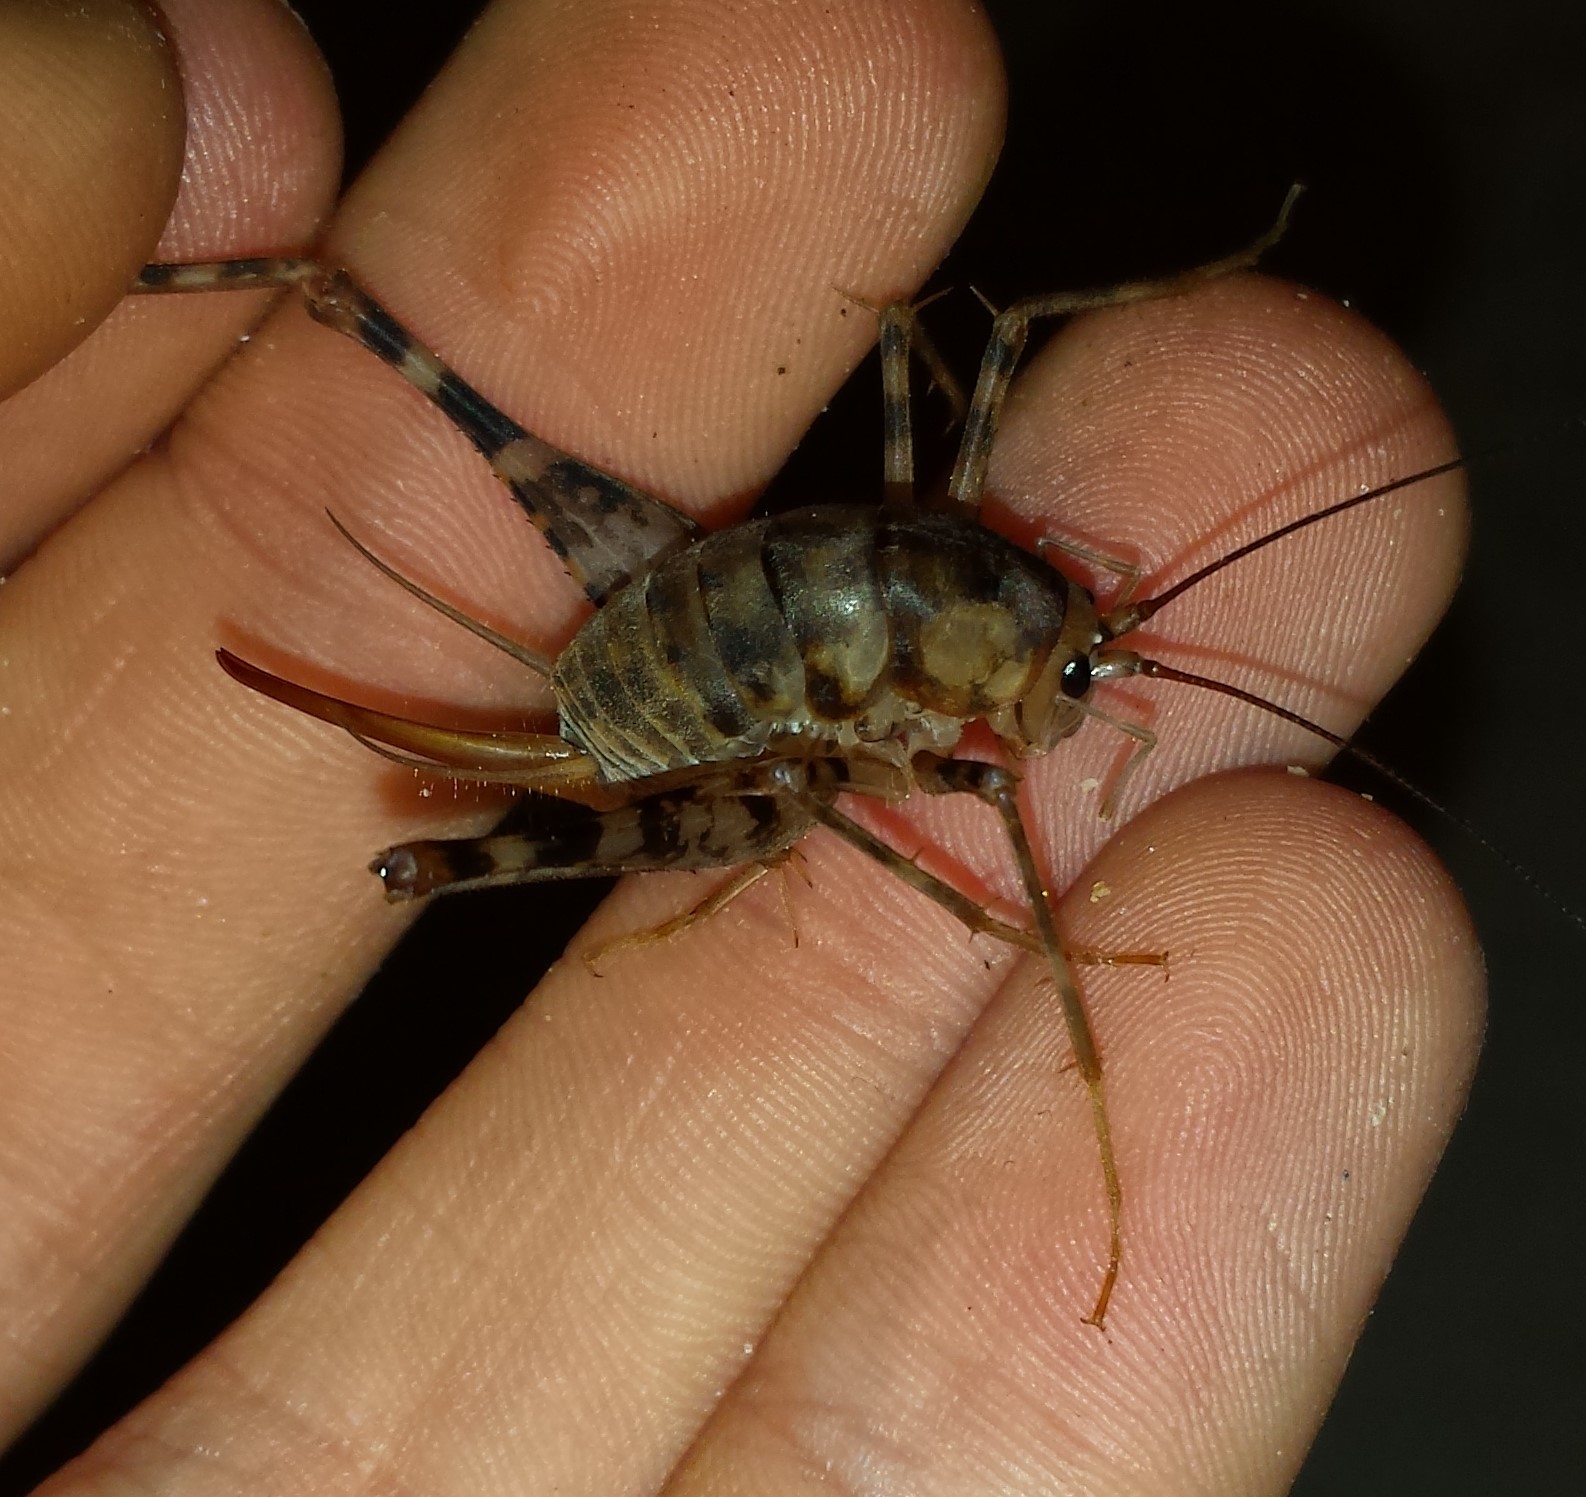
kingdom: Animalia
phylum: Arthropoda
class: Insecta
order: Orthoptera
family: Rhaphidophoridae
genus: Tachycines
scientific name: Tachycines asynamorus
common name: Greenhouse camel cricket
